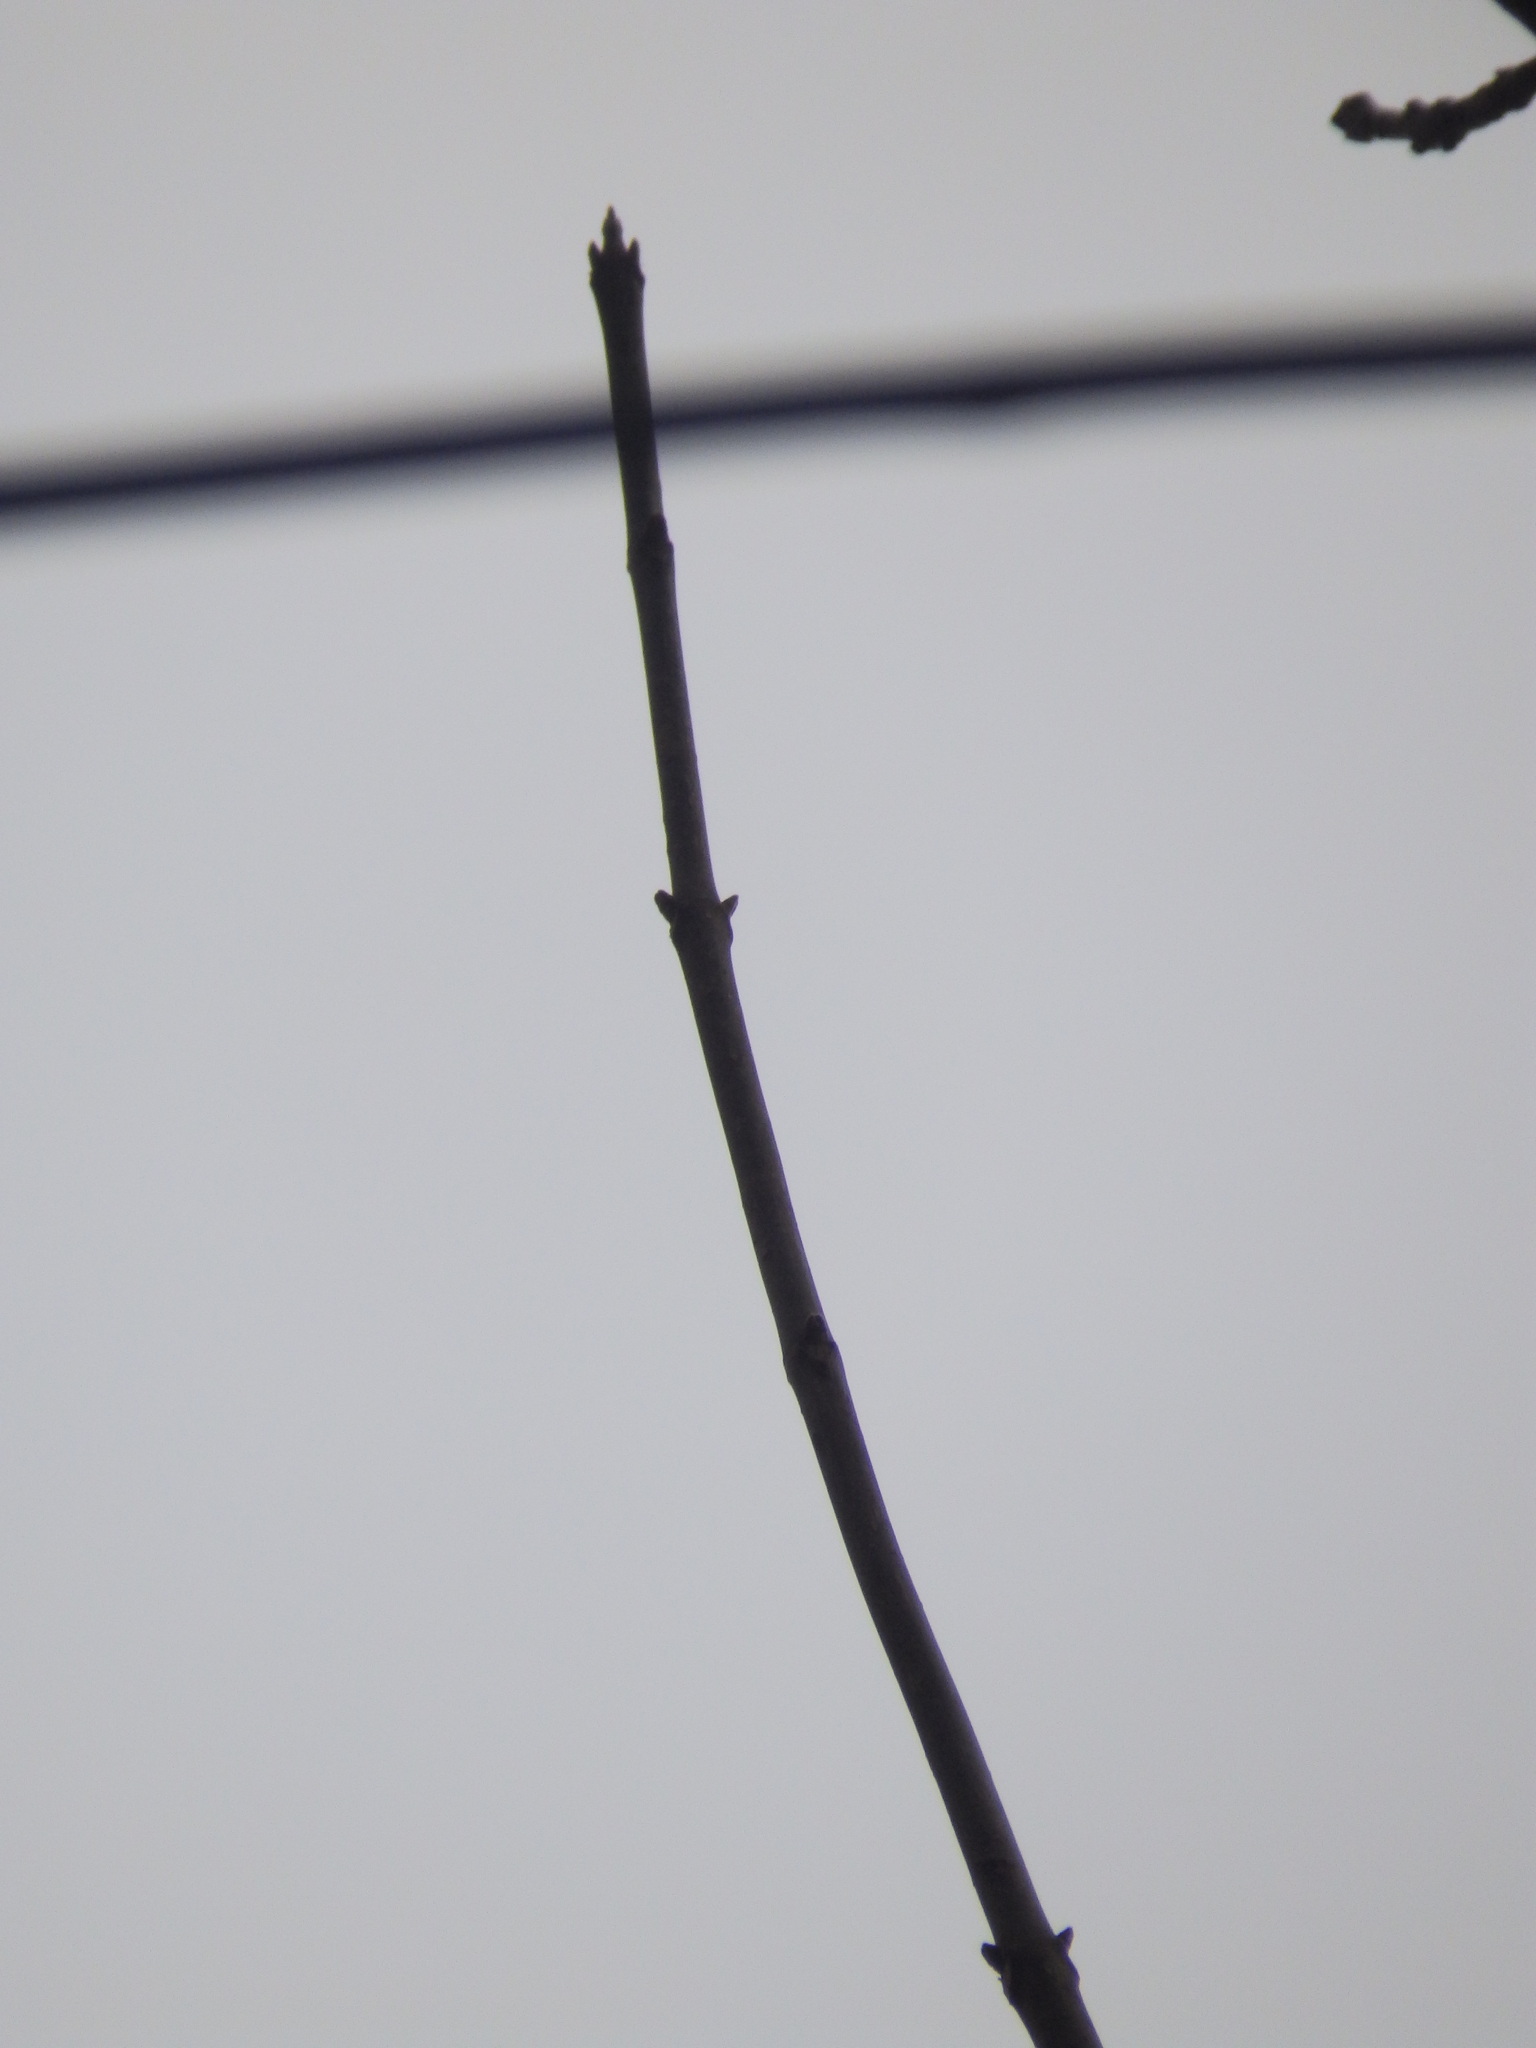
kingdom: Plantae
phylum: Tracheophyta
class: Magnoliopsida
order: Sapindales
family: Rutaceae
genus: Tetradium
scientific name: Tetradium daniellii
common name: Bee-bee tree
